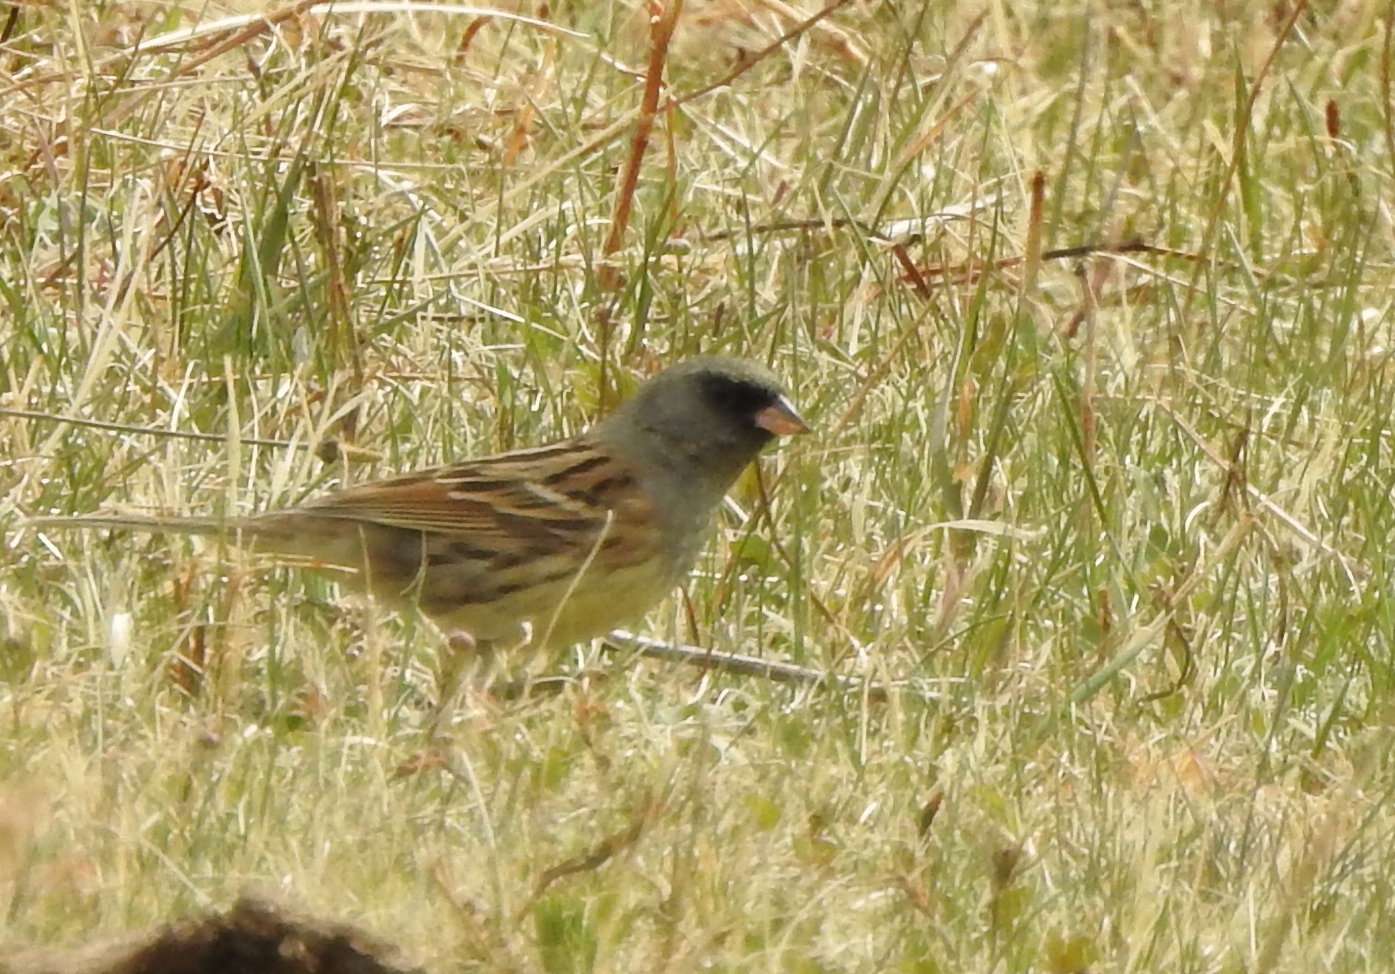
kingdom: Animalia
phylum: Chordata
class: Aves
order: Passeriformes
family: Emberizidae
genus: Emberiza
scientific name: Emberiza spodocephala
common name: Black-faced bunting
